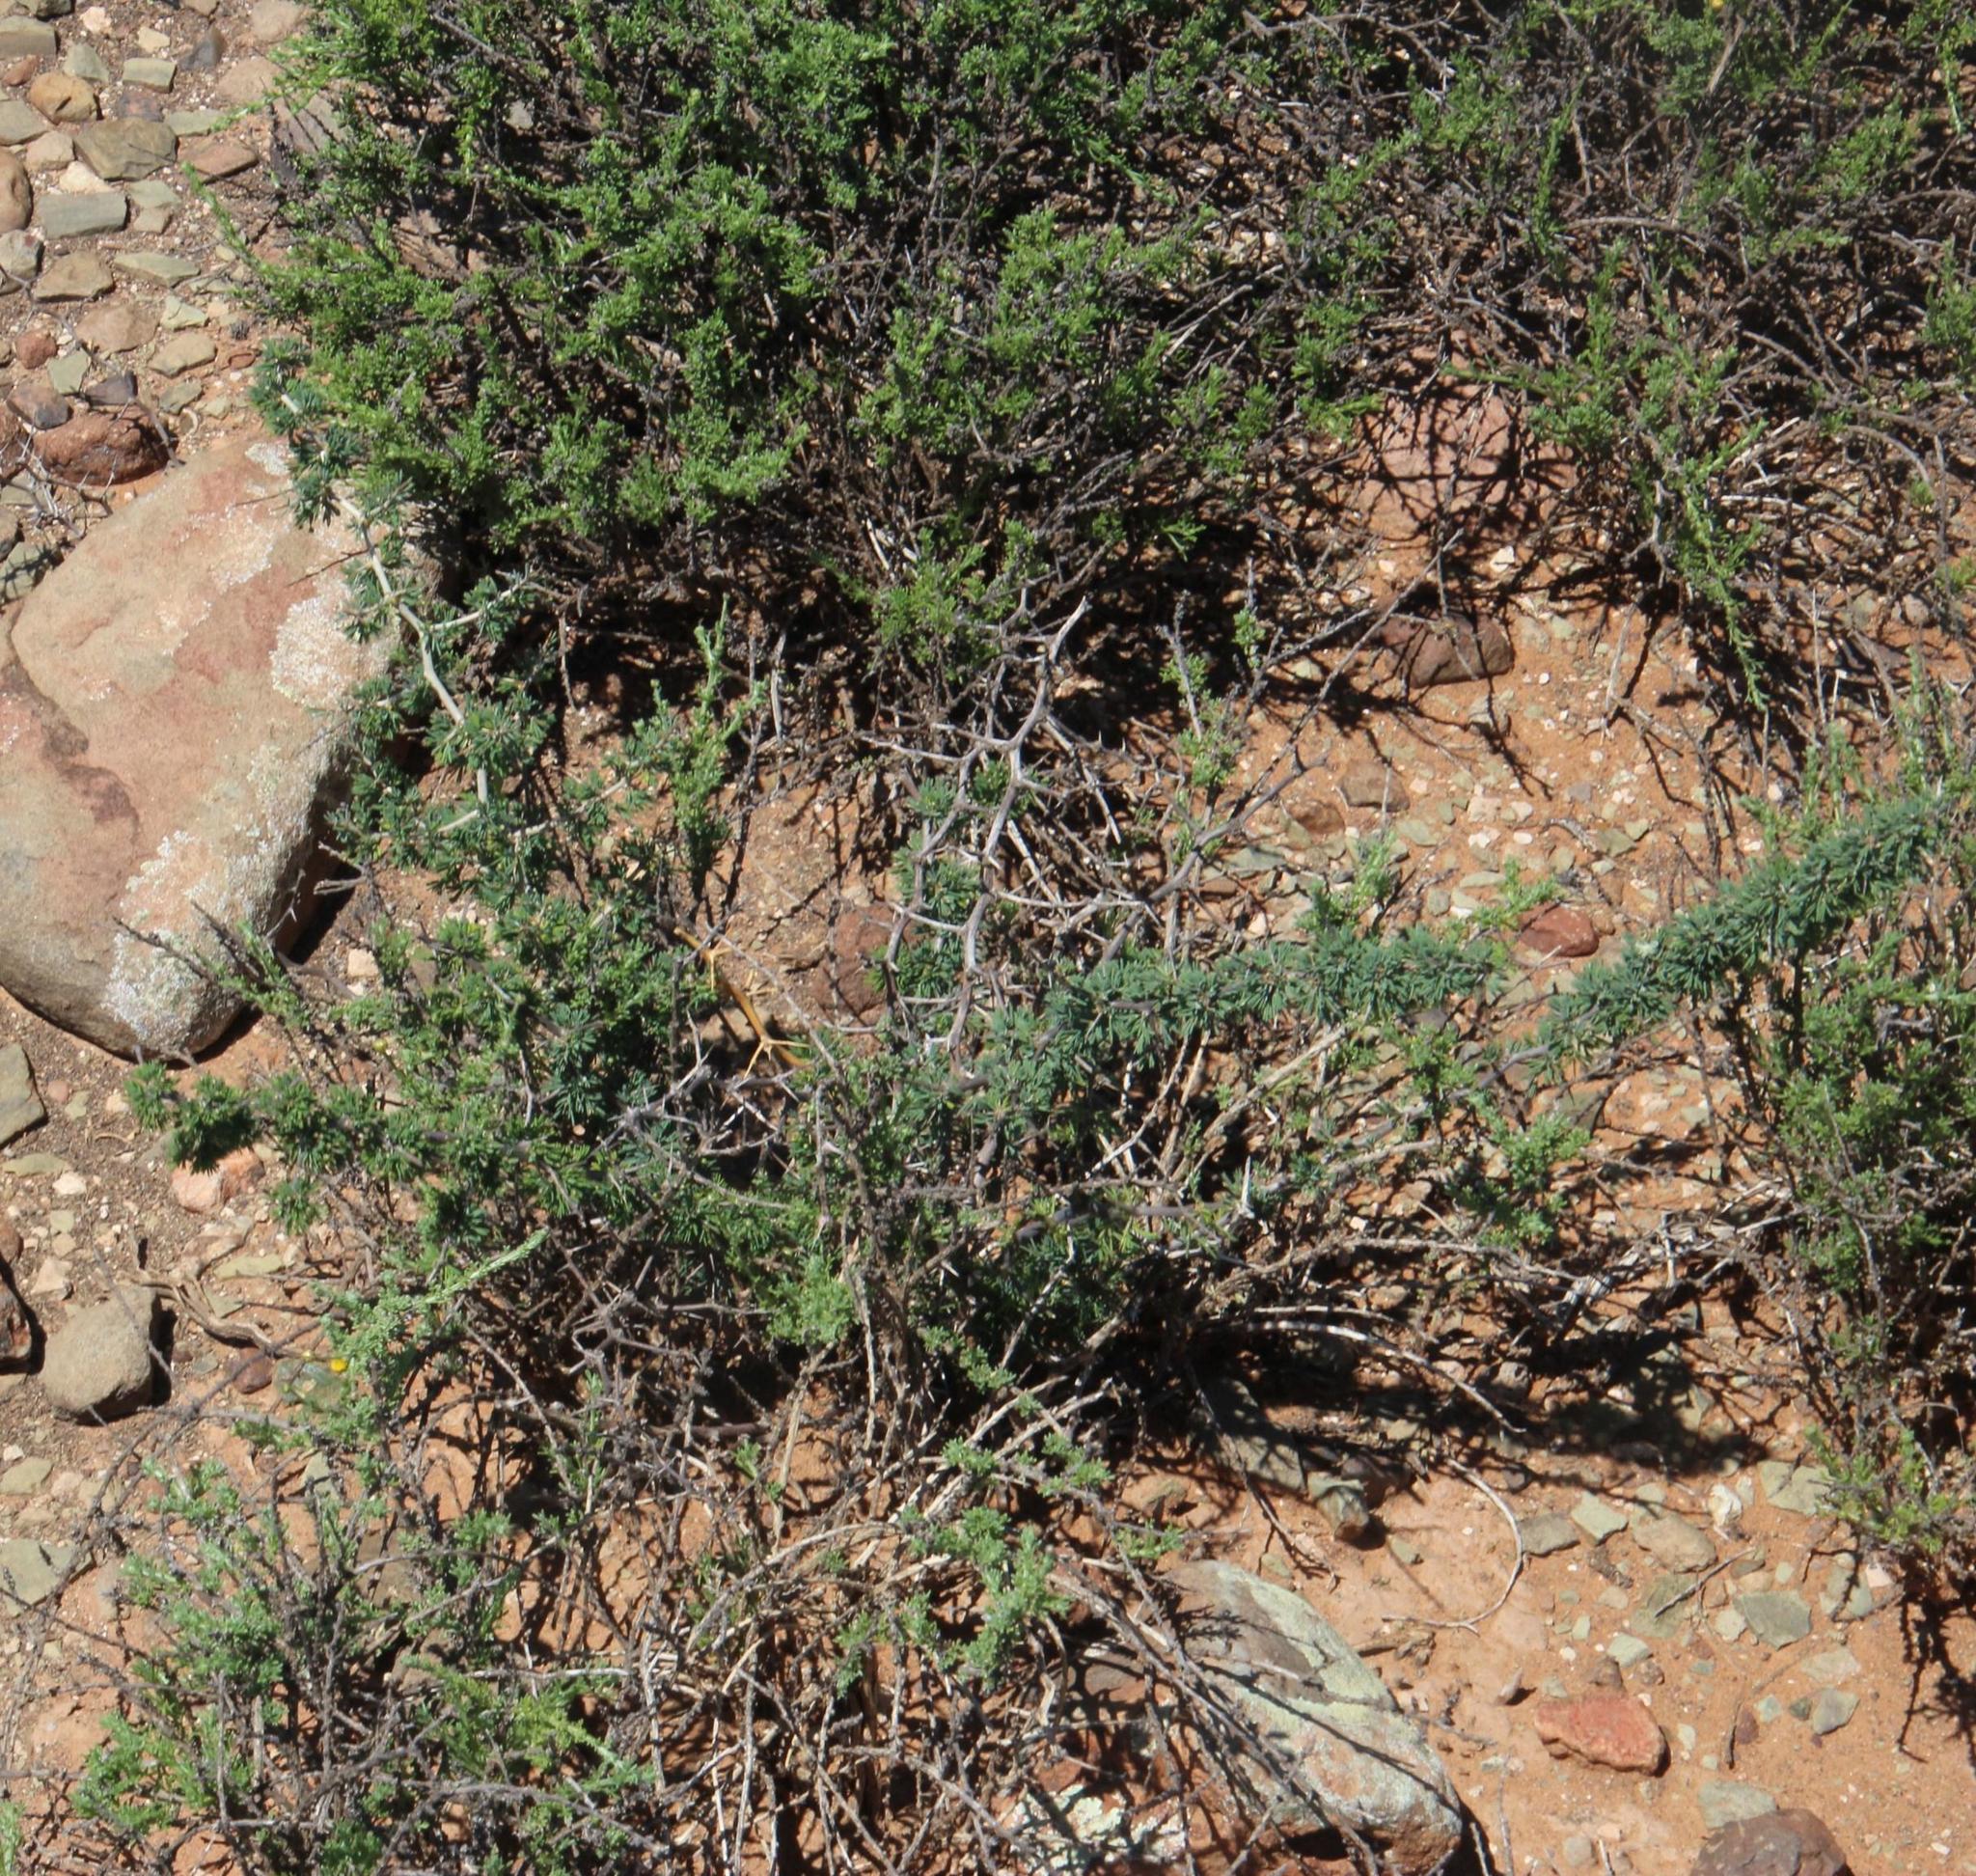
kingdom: Plantae
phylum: Tracheophyta
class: Liliopsida
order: Asparagales
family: Asparagaceae
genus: Asparagus
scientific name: Asparagus suaveolens
